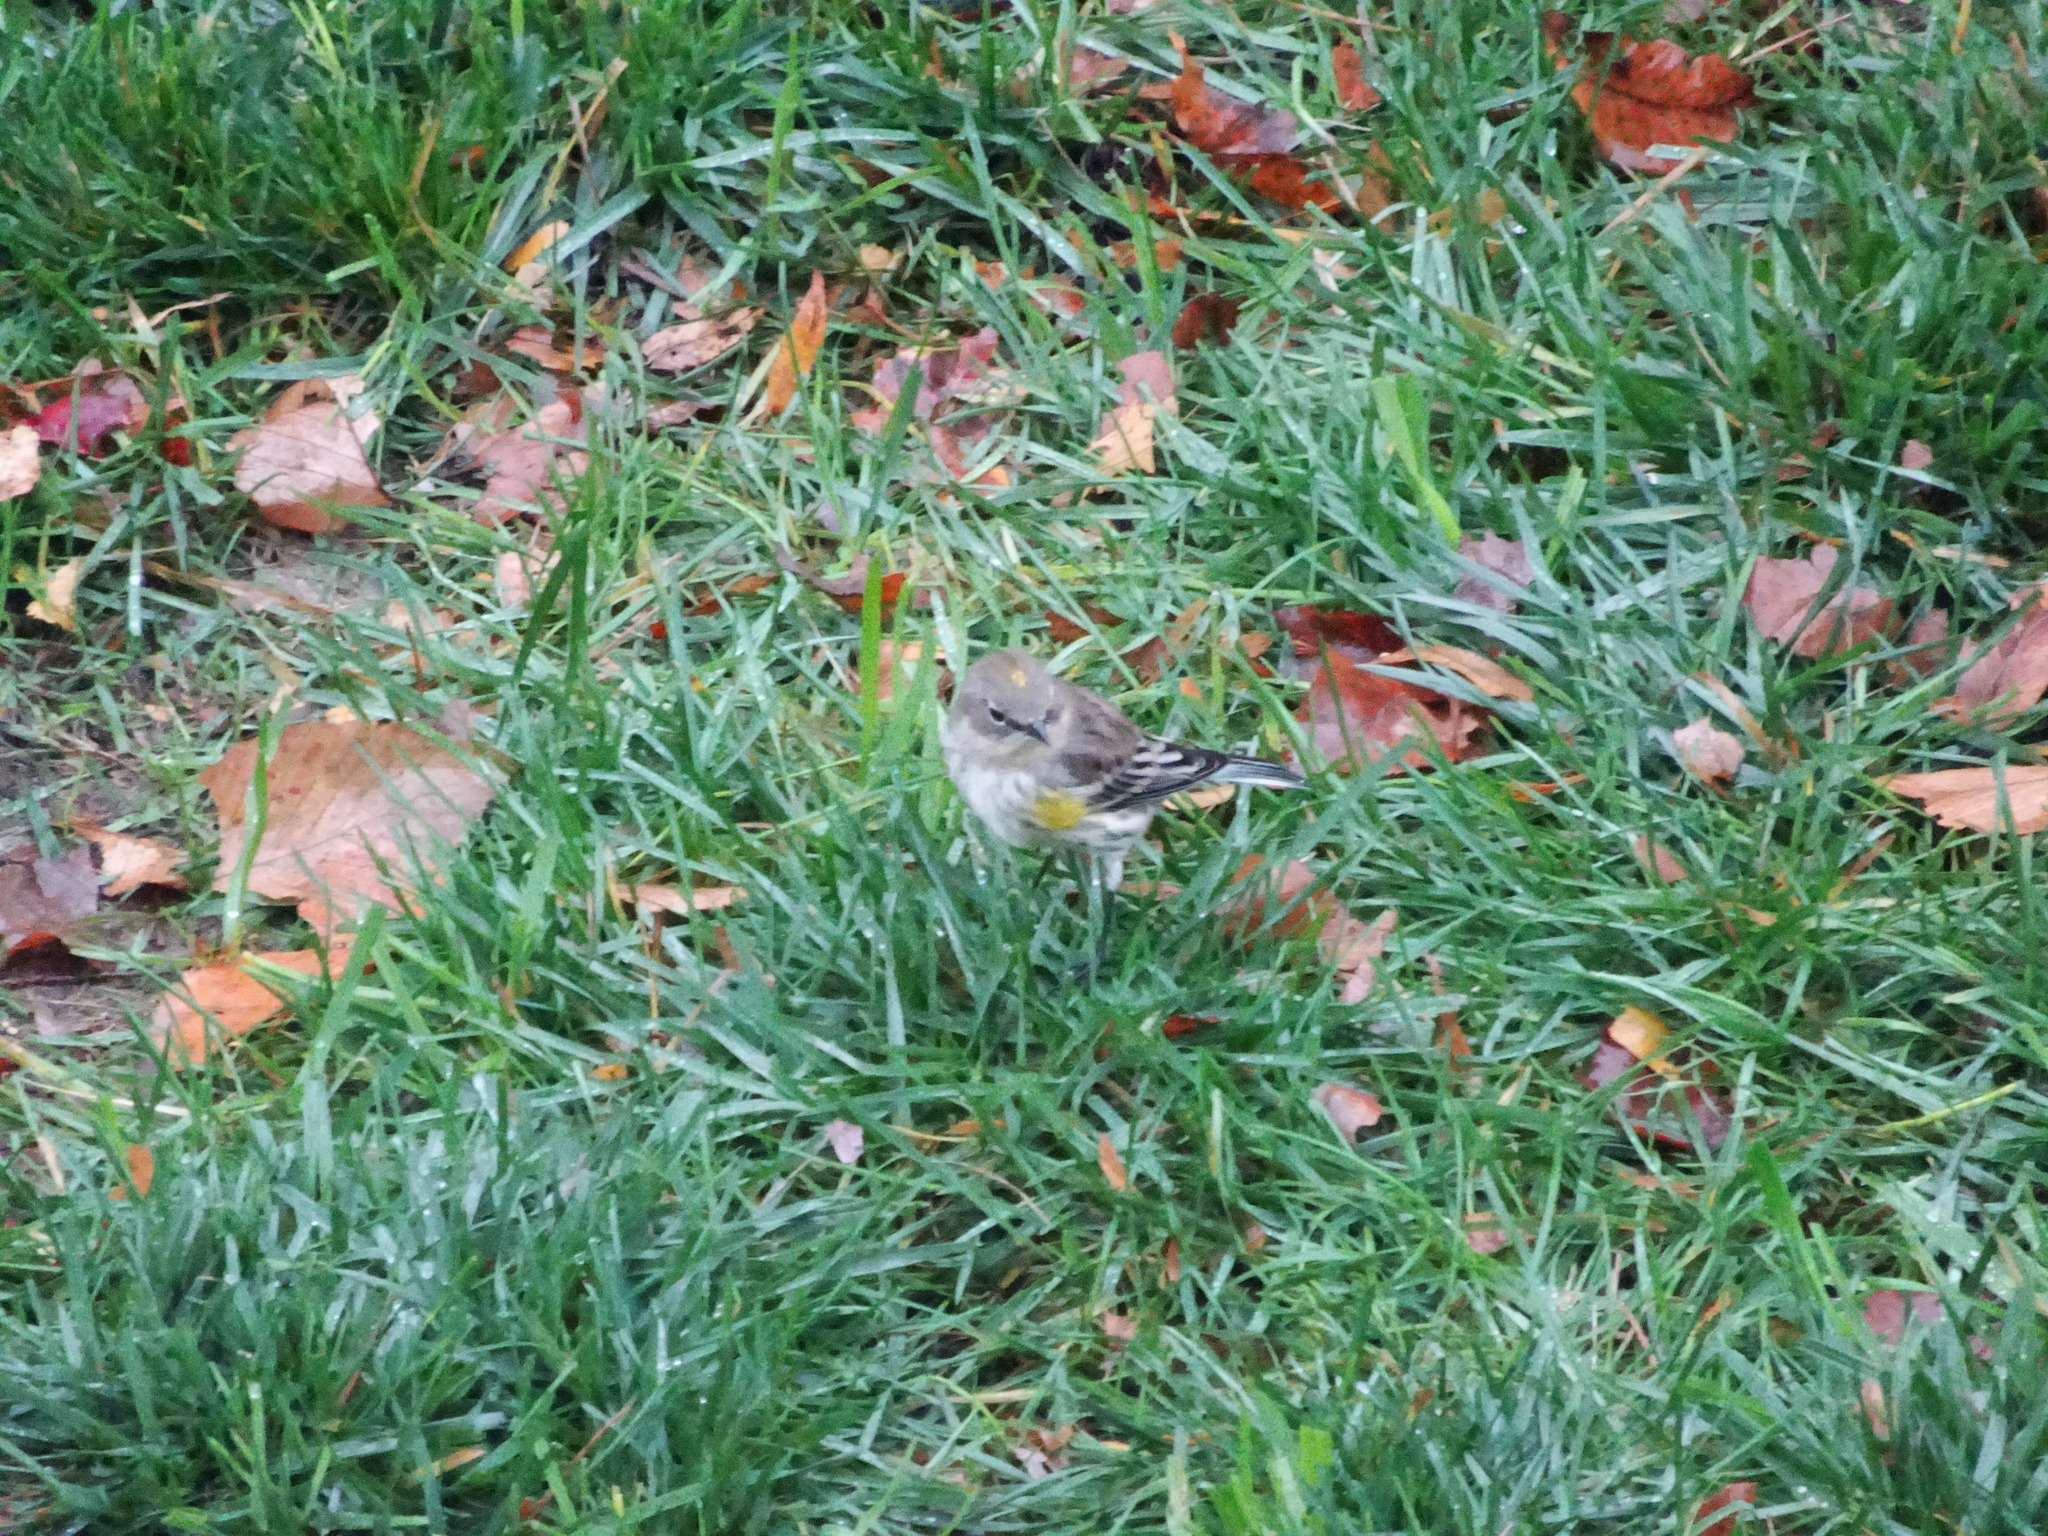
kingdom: Animalia
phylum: Chordata
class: Aves
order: Passeriformes
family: Parulidae
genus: Setophaga
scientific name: Setophaga coronata
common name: Myrtle warbler
